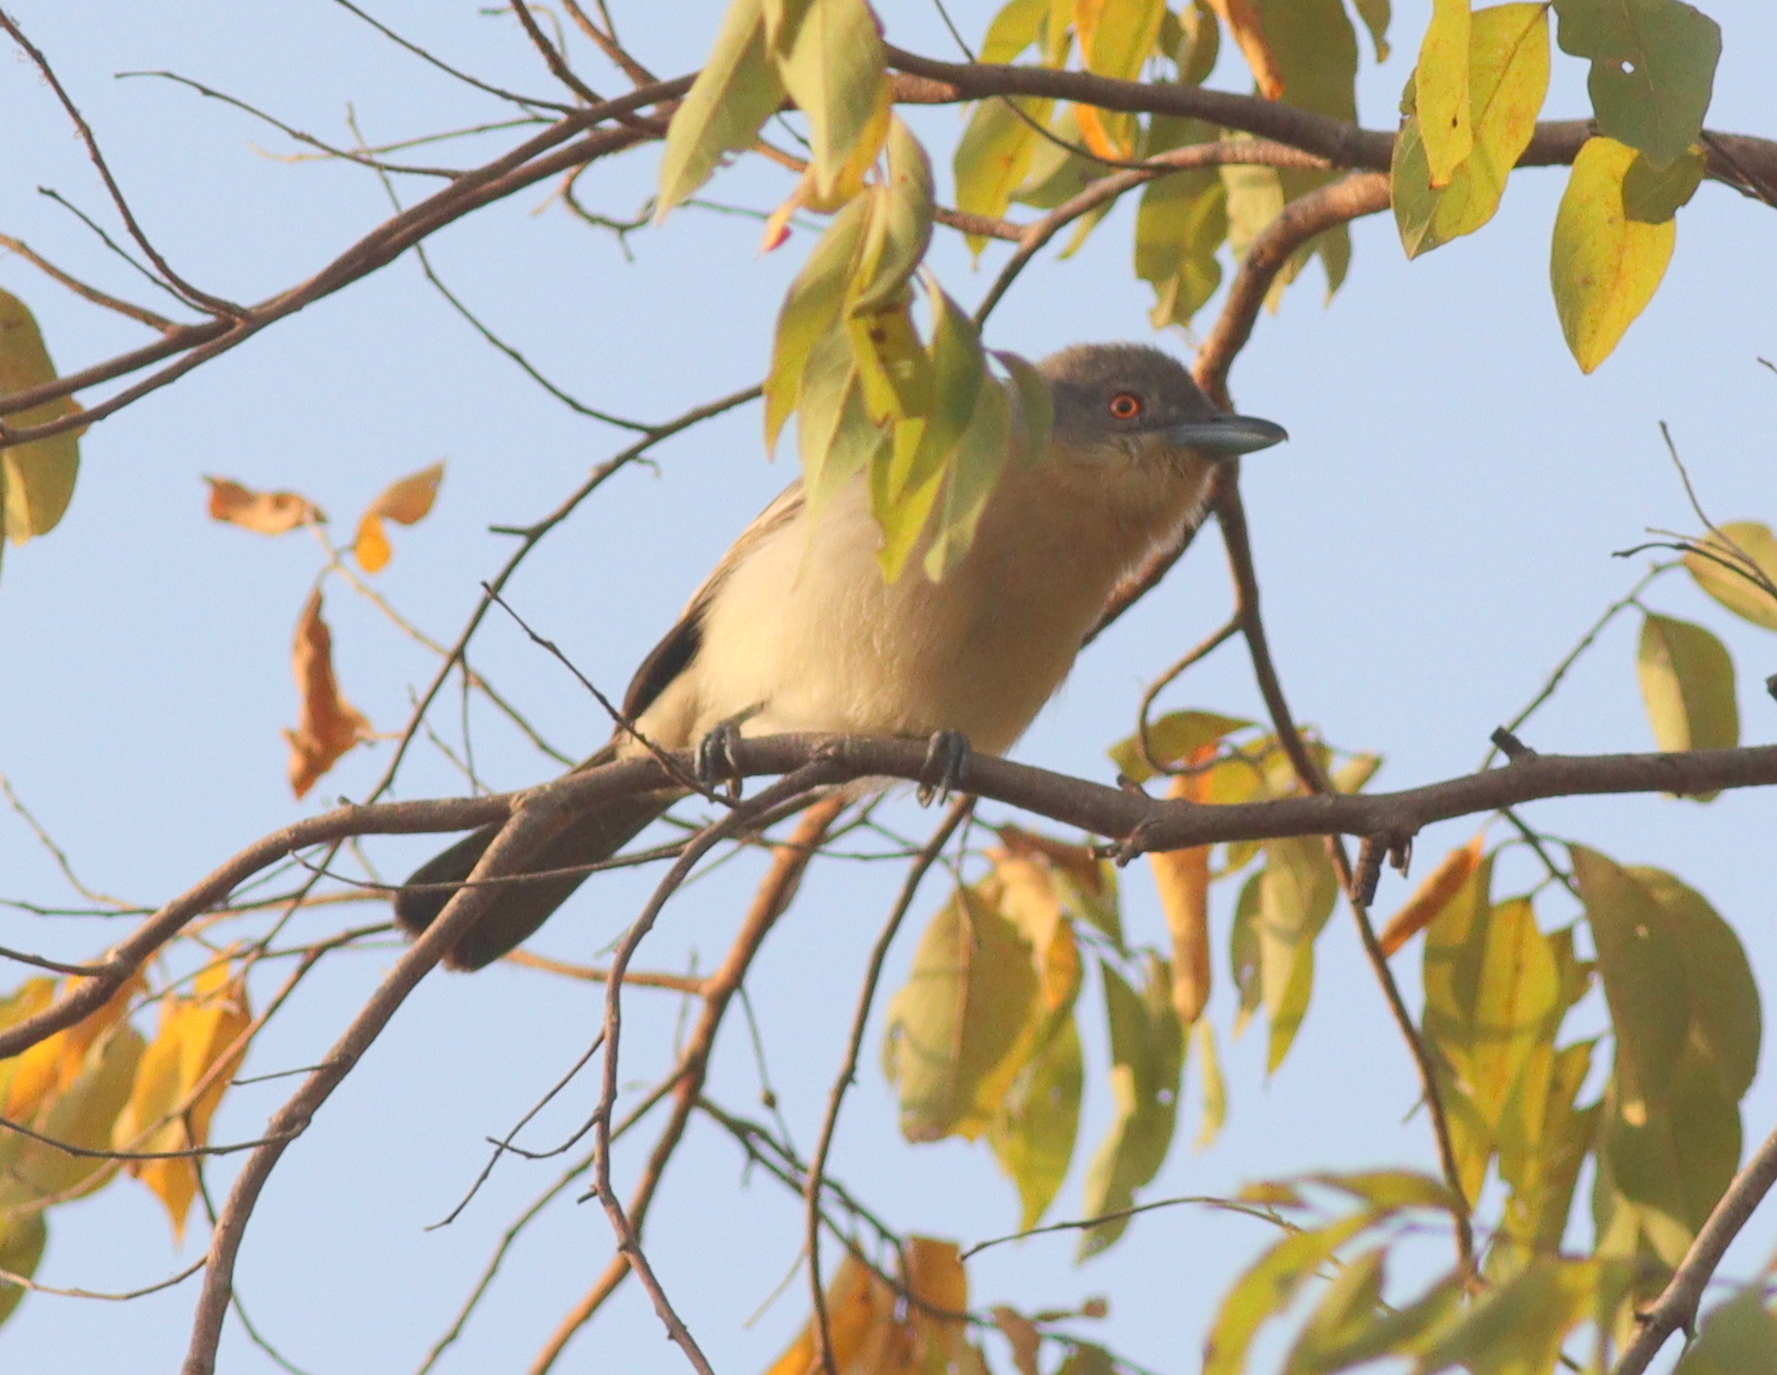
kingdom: Animalia
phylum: Chordata
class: Aves
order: Passeriformes
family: Malaconotidae
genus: Dryoscopus
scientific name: Dryoscopus gambensis
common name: Northern puffback
